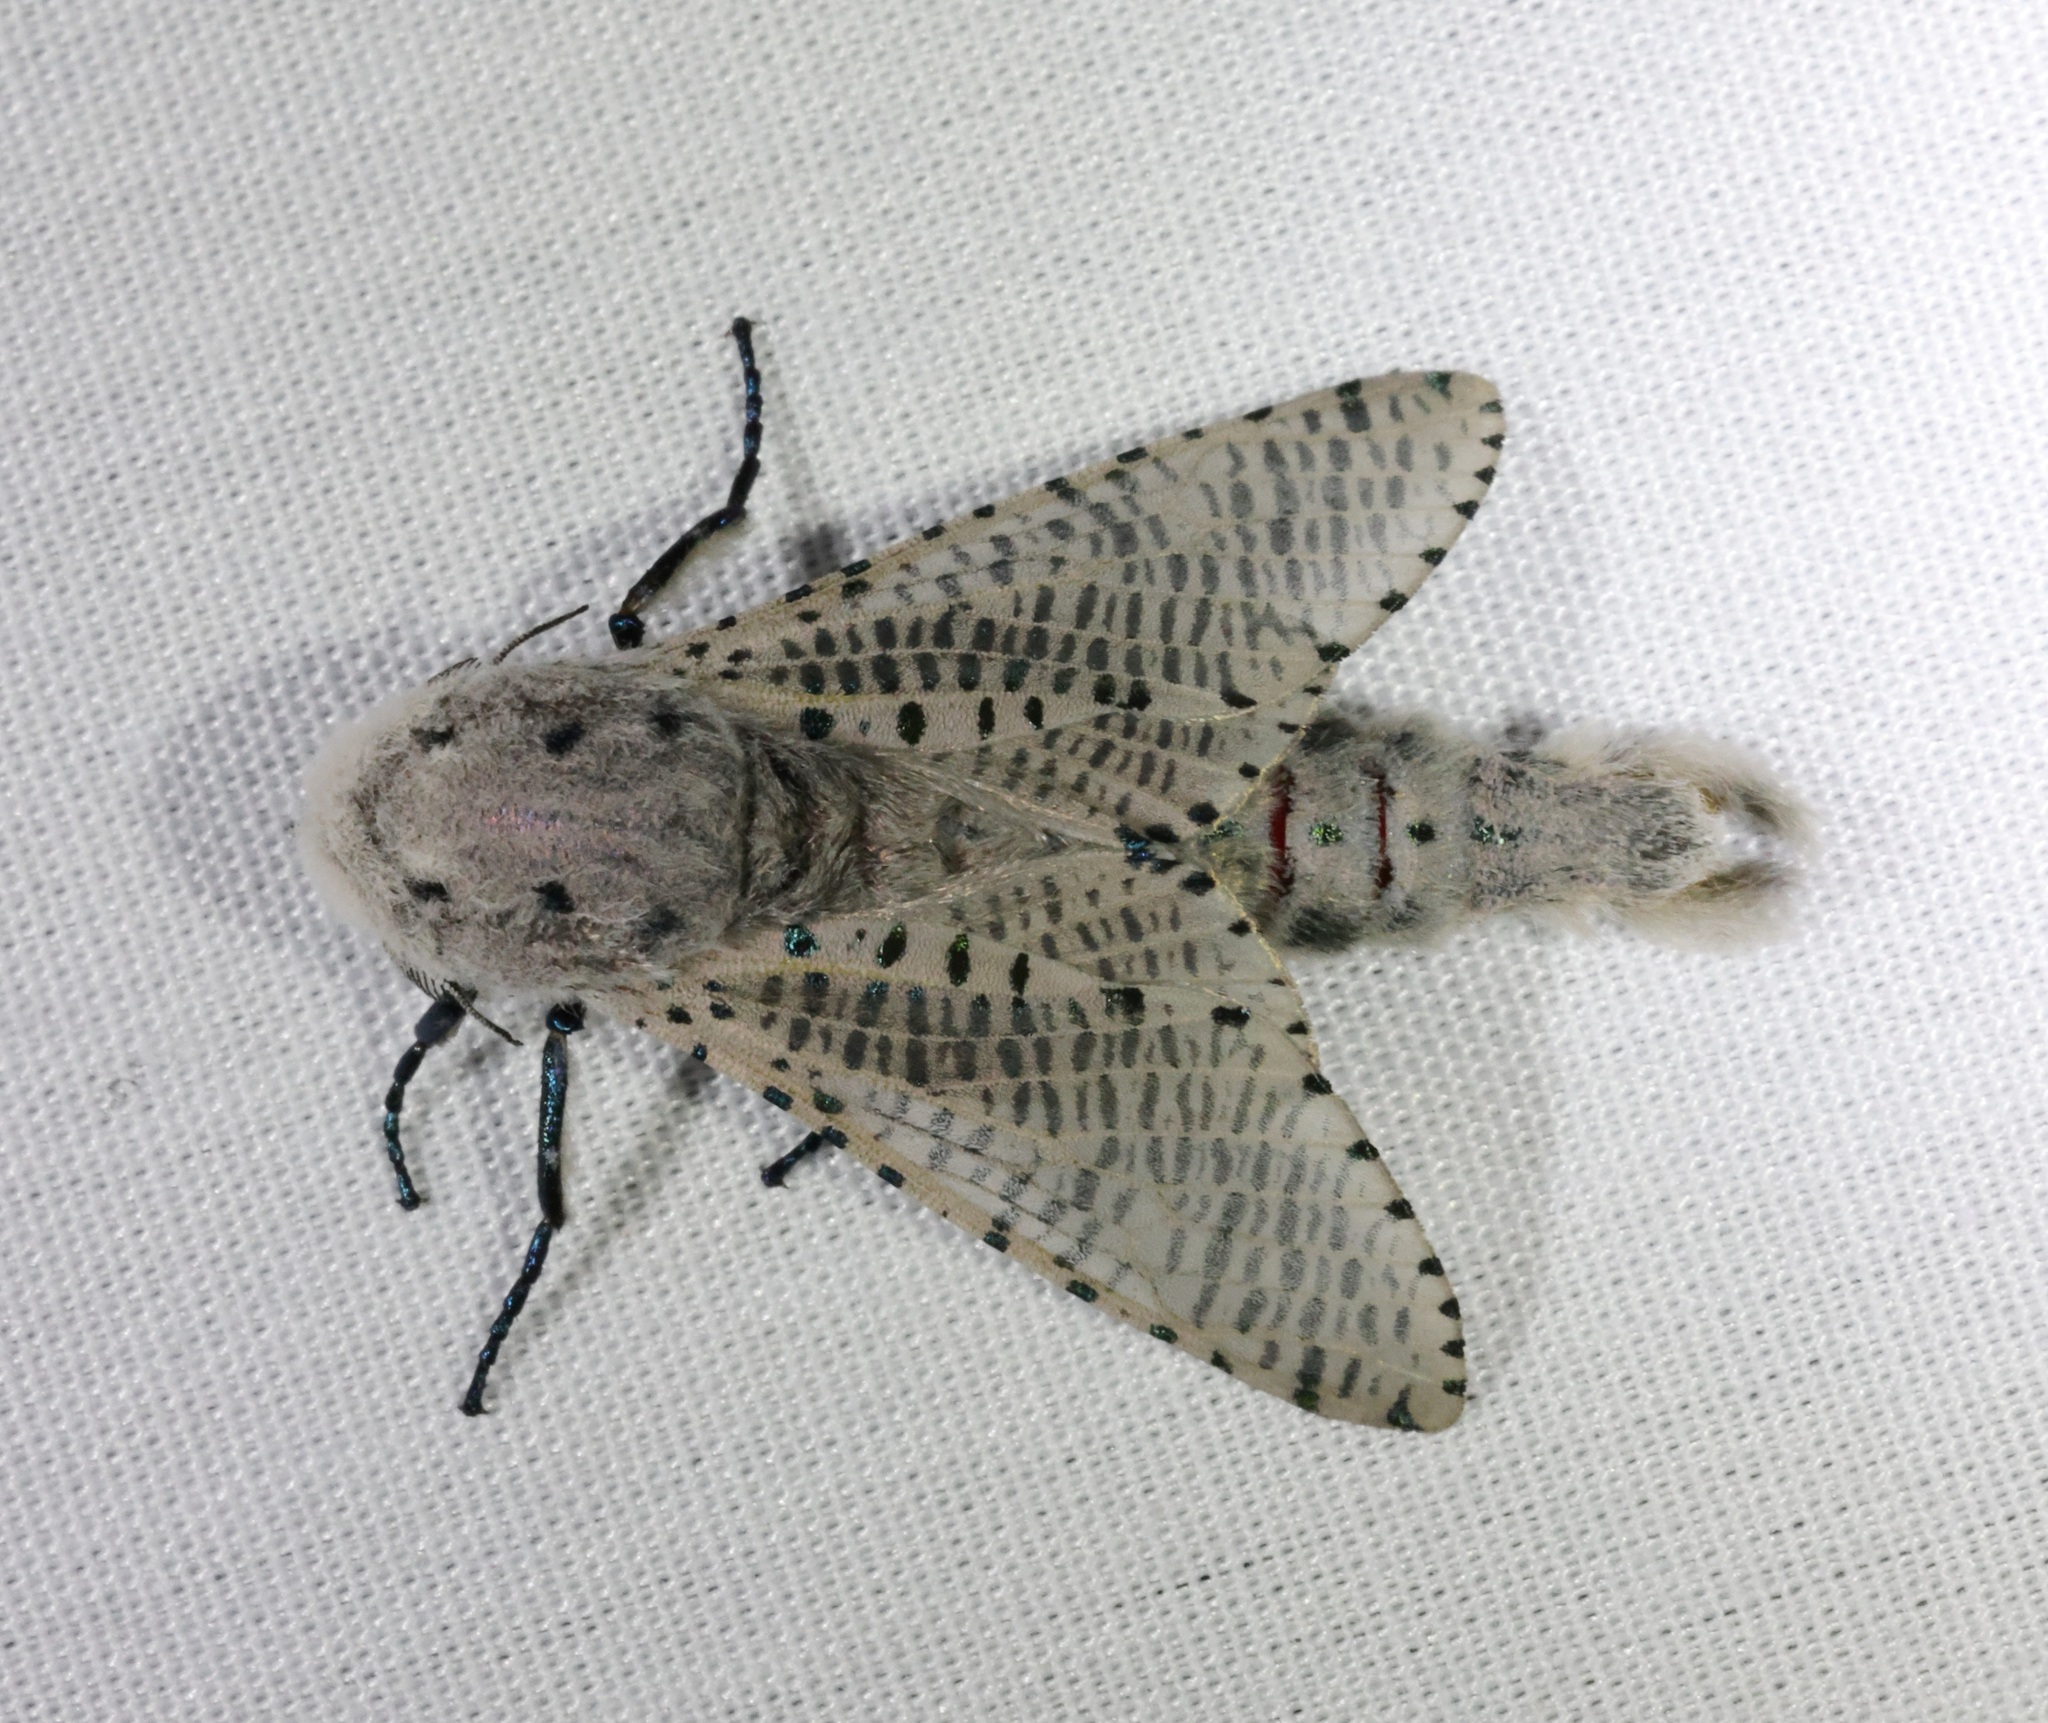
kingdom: Animalia
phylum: Arthropoda
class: Insecta
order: Lepidoptera
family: Cossidae
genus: Polyphagozerra
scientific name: Polyphagozerra coffeae
